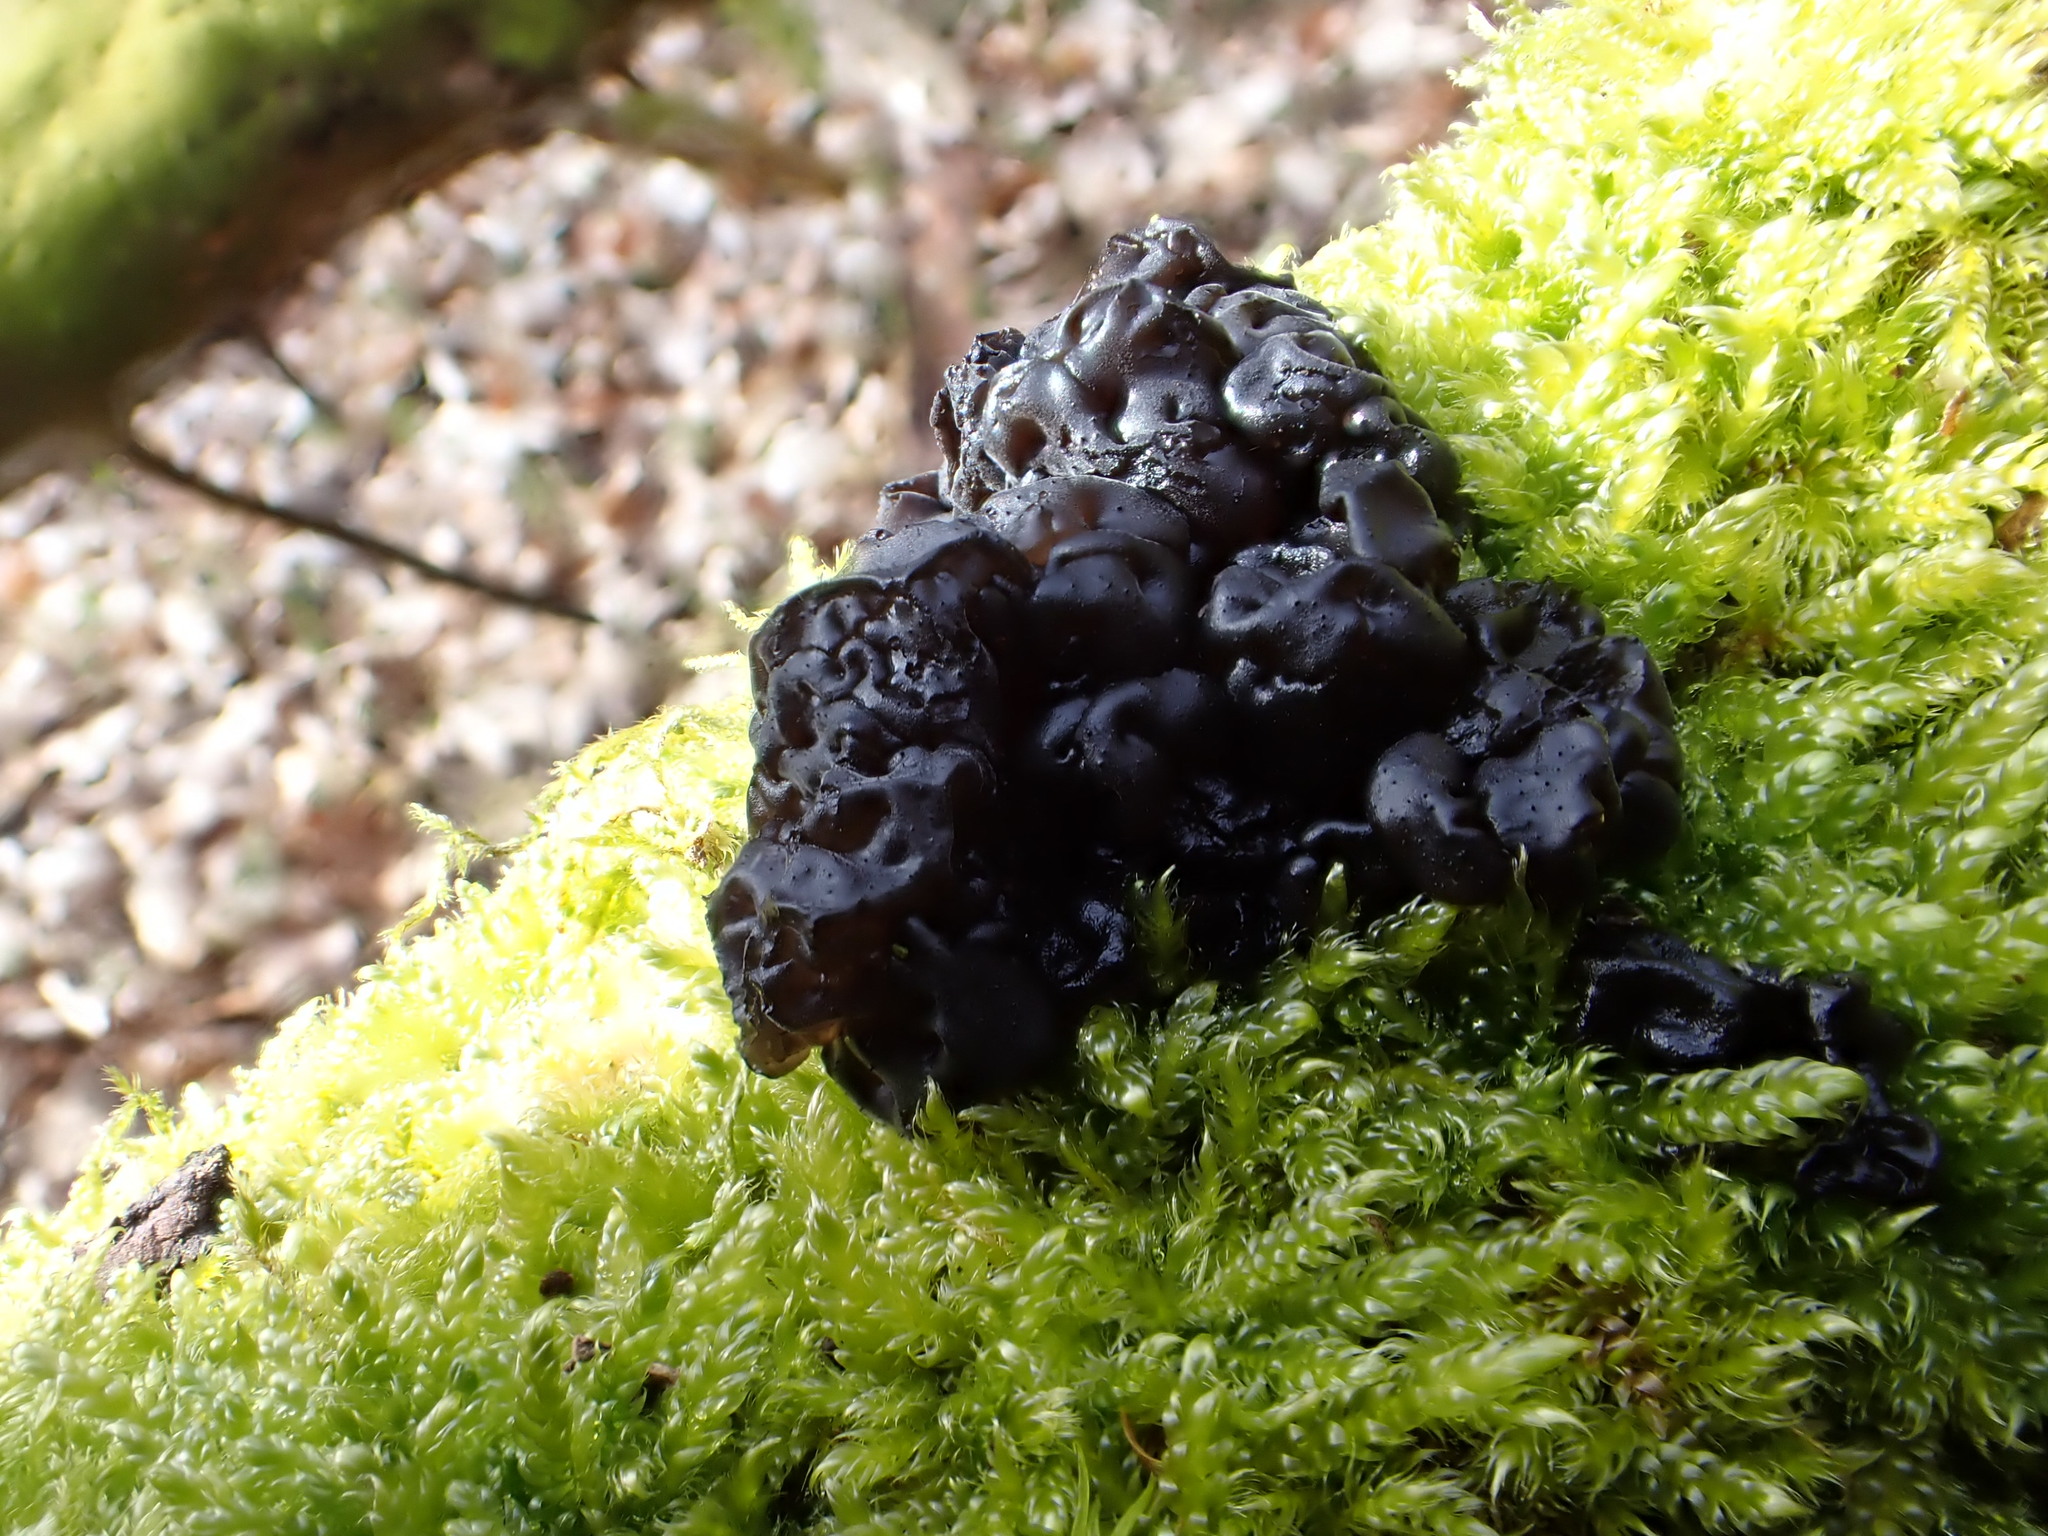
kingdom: Fungi
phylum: Basidiomycota
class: Agaricomycetes
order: Auriculariales
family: Auriculariaceae
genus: Exidia
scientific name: Exidia glandulosa
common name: Witches' butter
